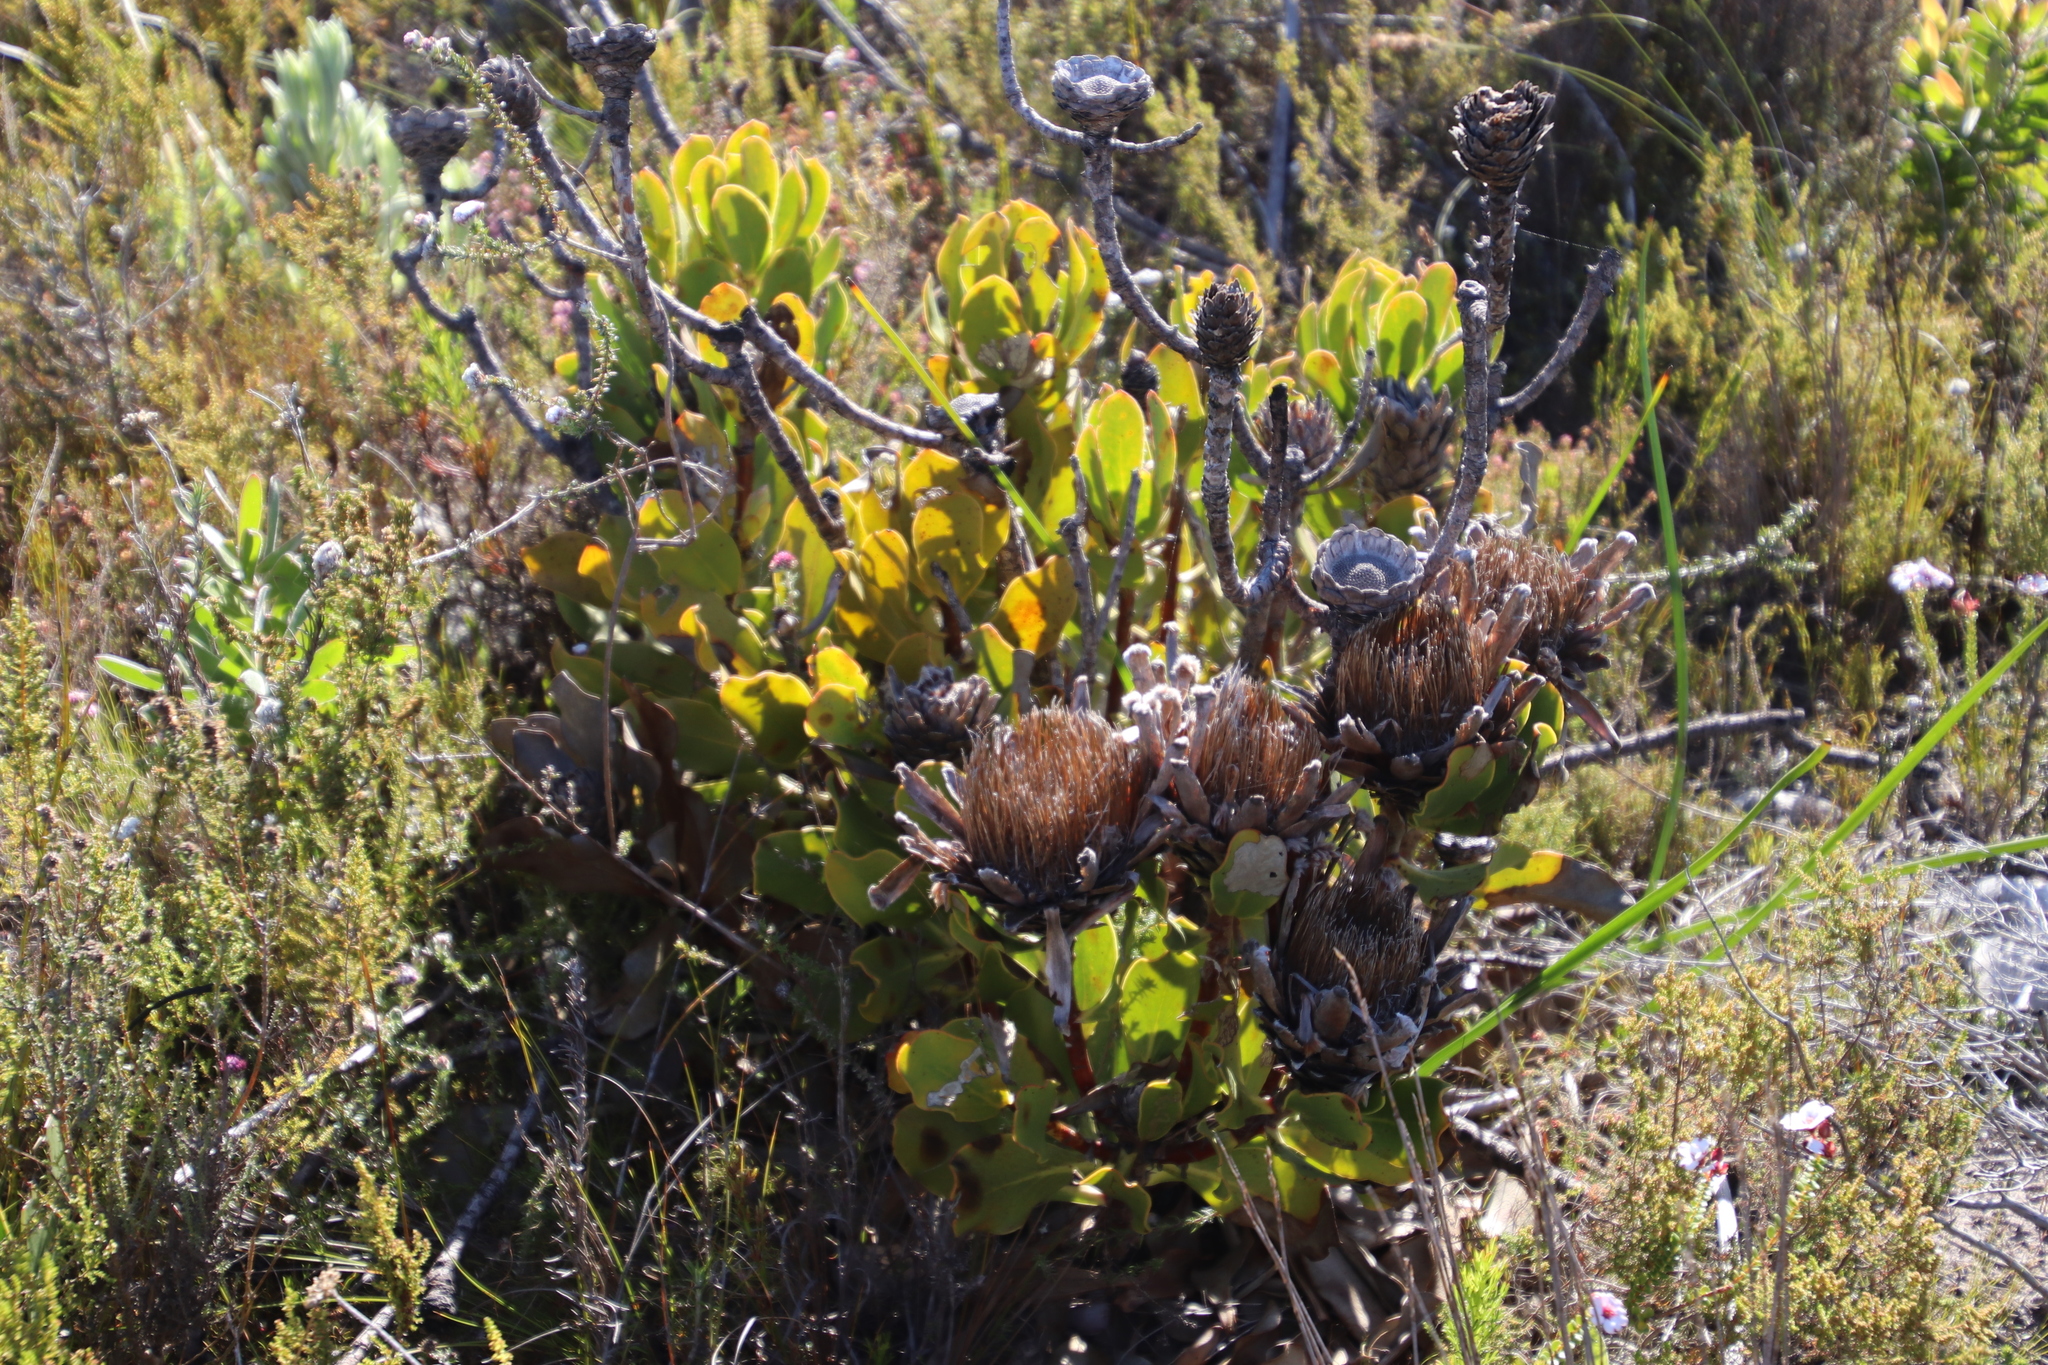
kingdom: Plantae
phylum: Tracheophyta
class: Magnoliopsida
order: Proteales
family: Proteaceae
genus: Protea
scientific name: Protea speciosa
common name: Brown-beard sugarbush
